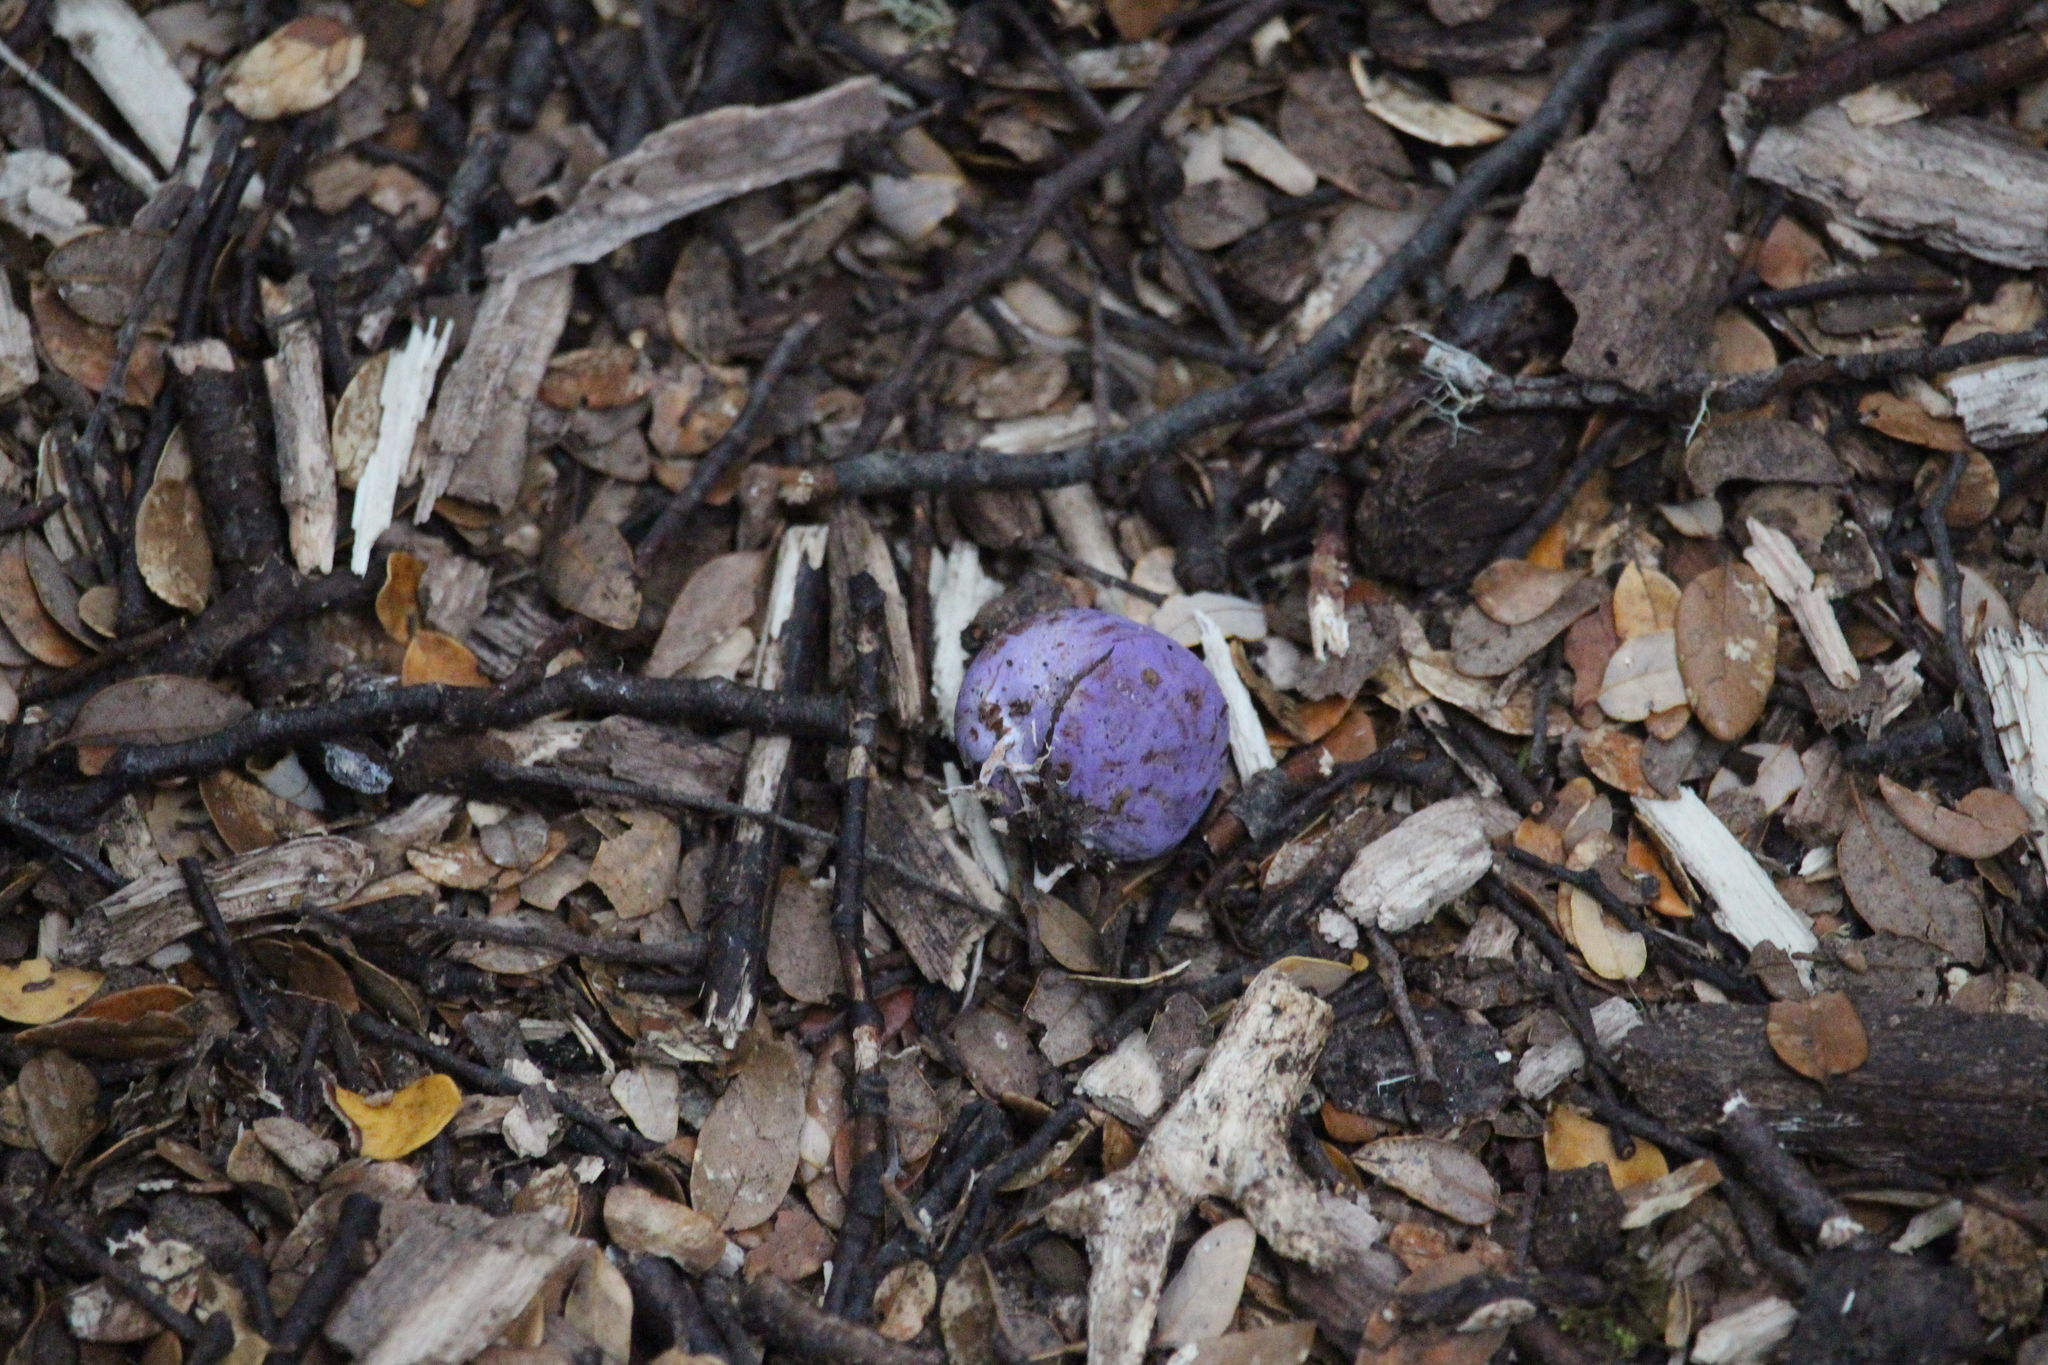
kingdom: Fungi
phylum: Basidiomycota
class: Agaricomycetes
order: Hysterangiales
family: Gallaceaceae
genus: Gallacea
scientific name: Gallacea scleroderma
